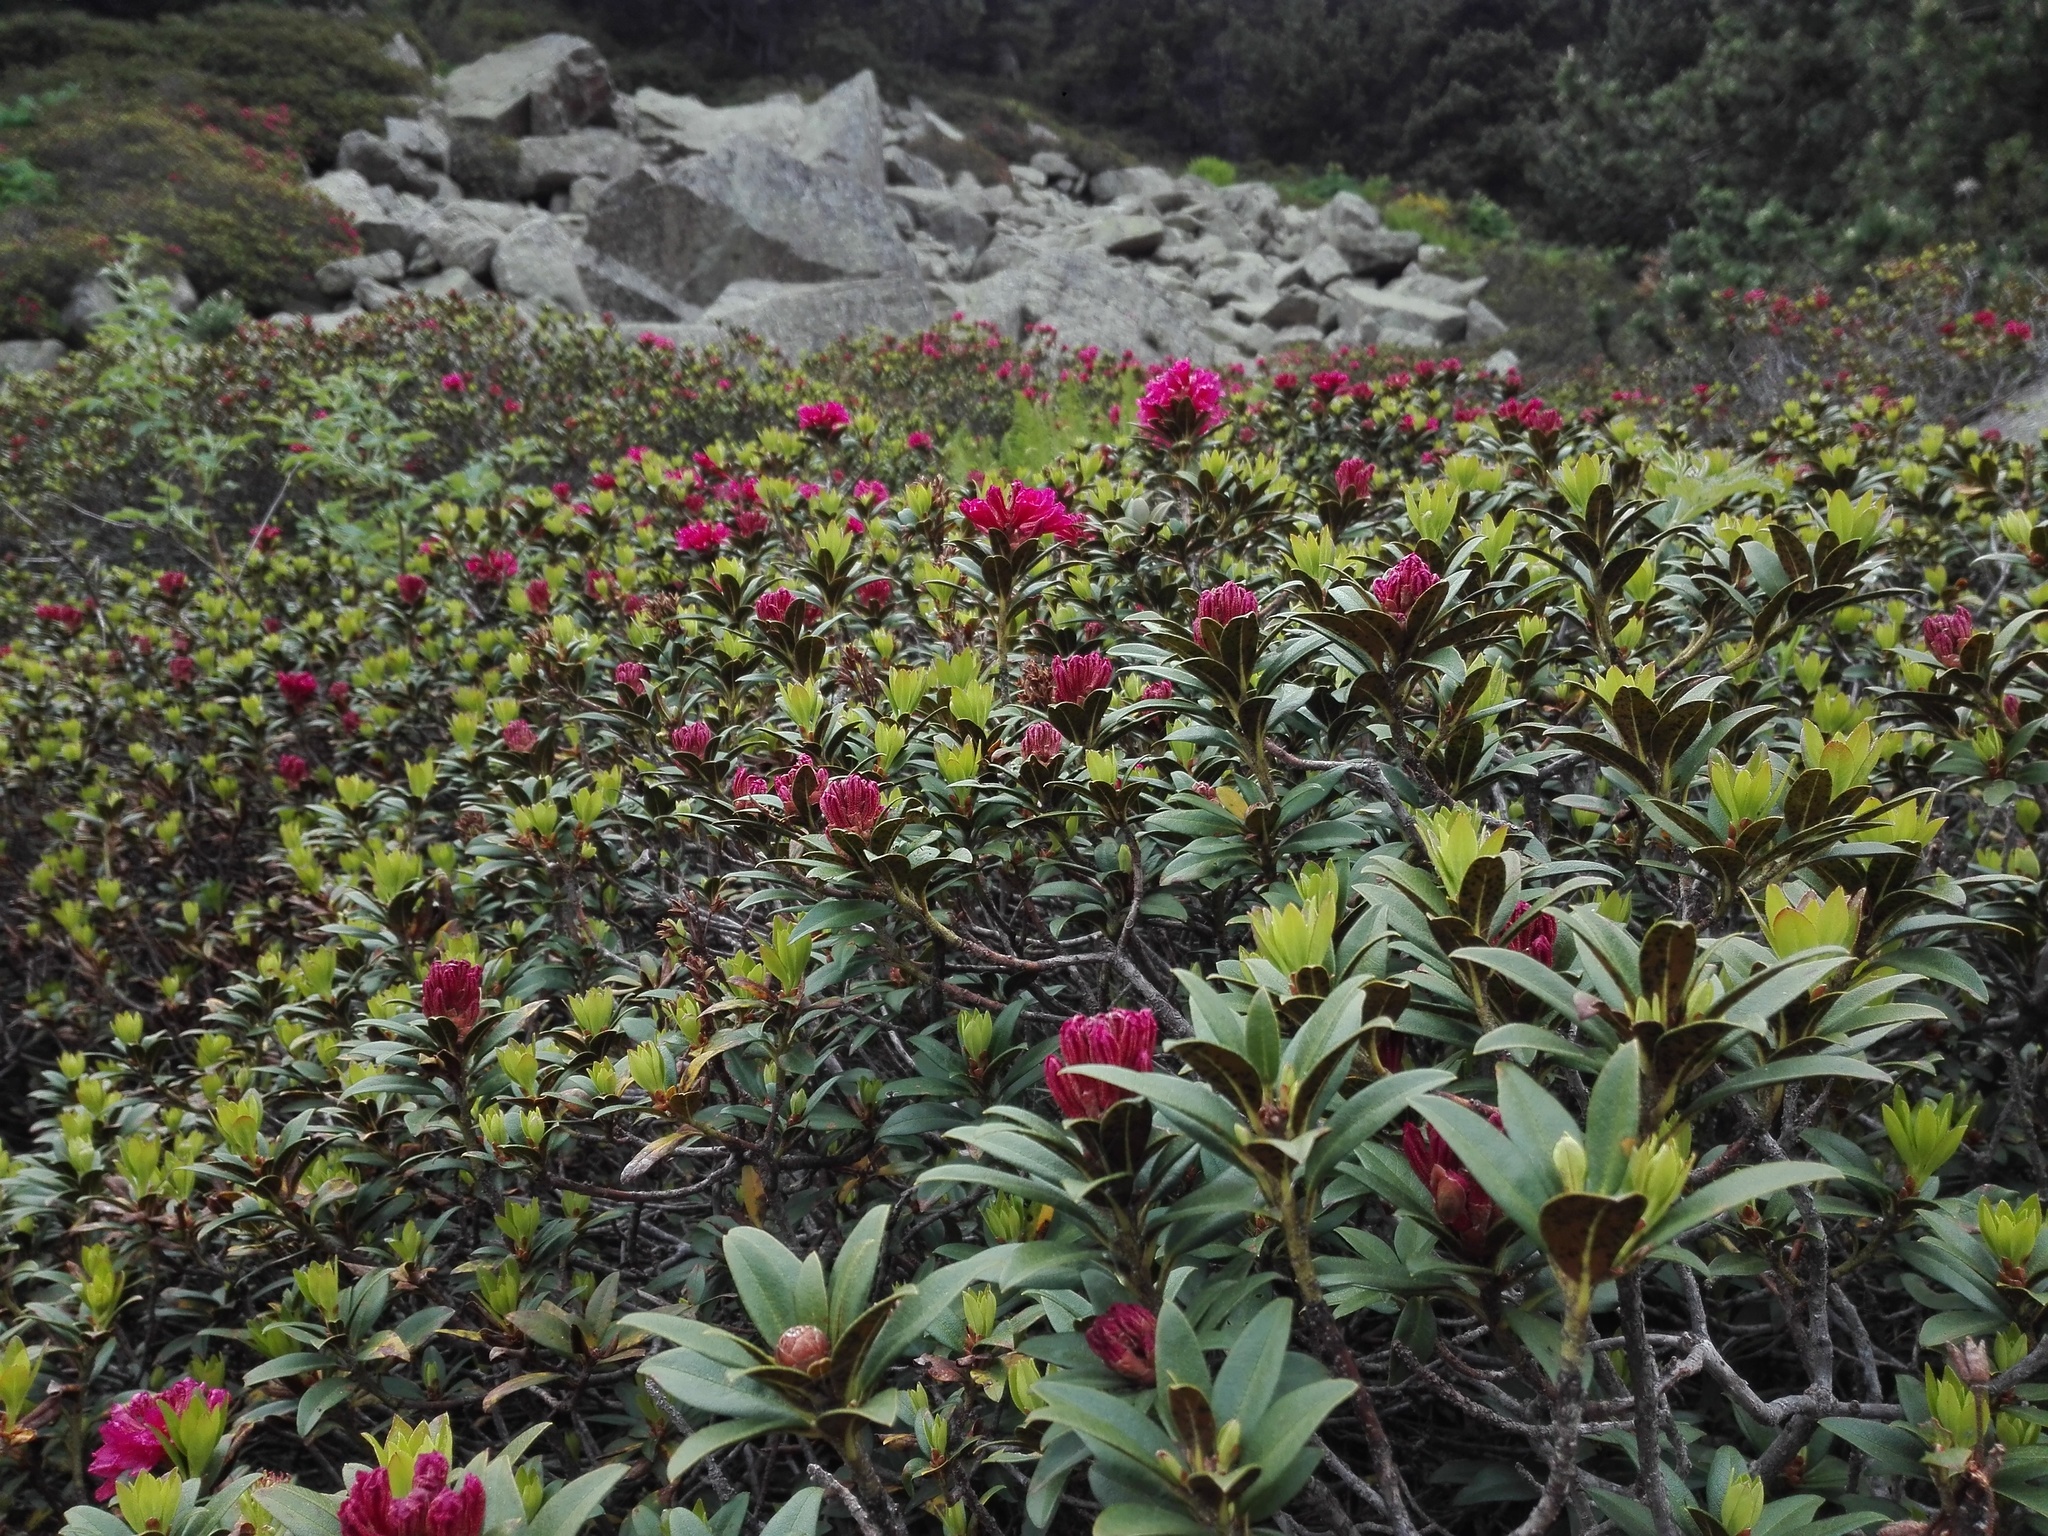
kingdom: Plantae
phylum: Tracheophyta
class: Magnoliopsida
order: Ericales
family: Ericaceae
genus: Rhododendron
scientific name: Rhododendron ferrugineum
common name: Alpenrose
